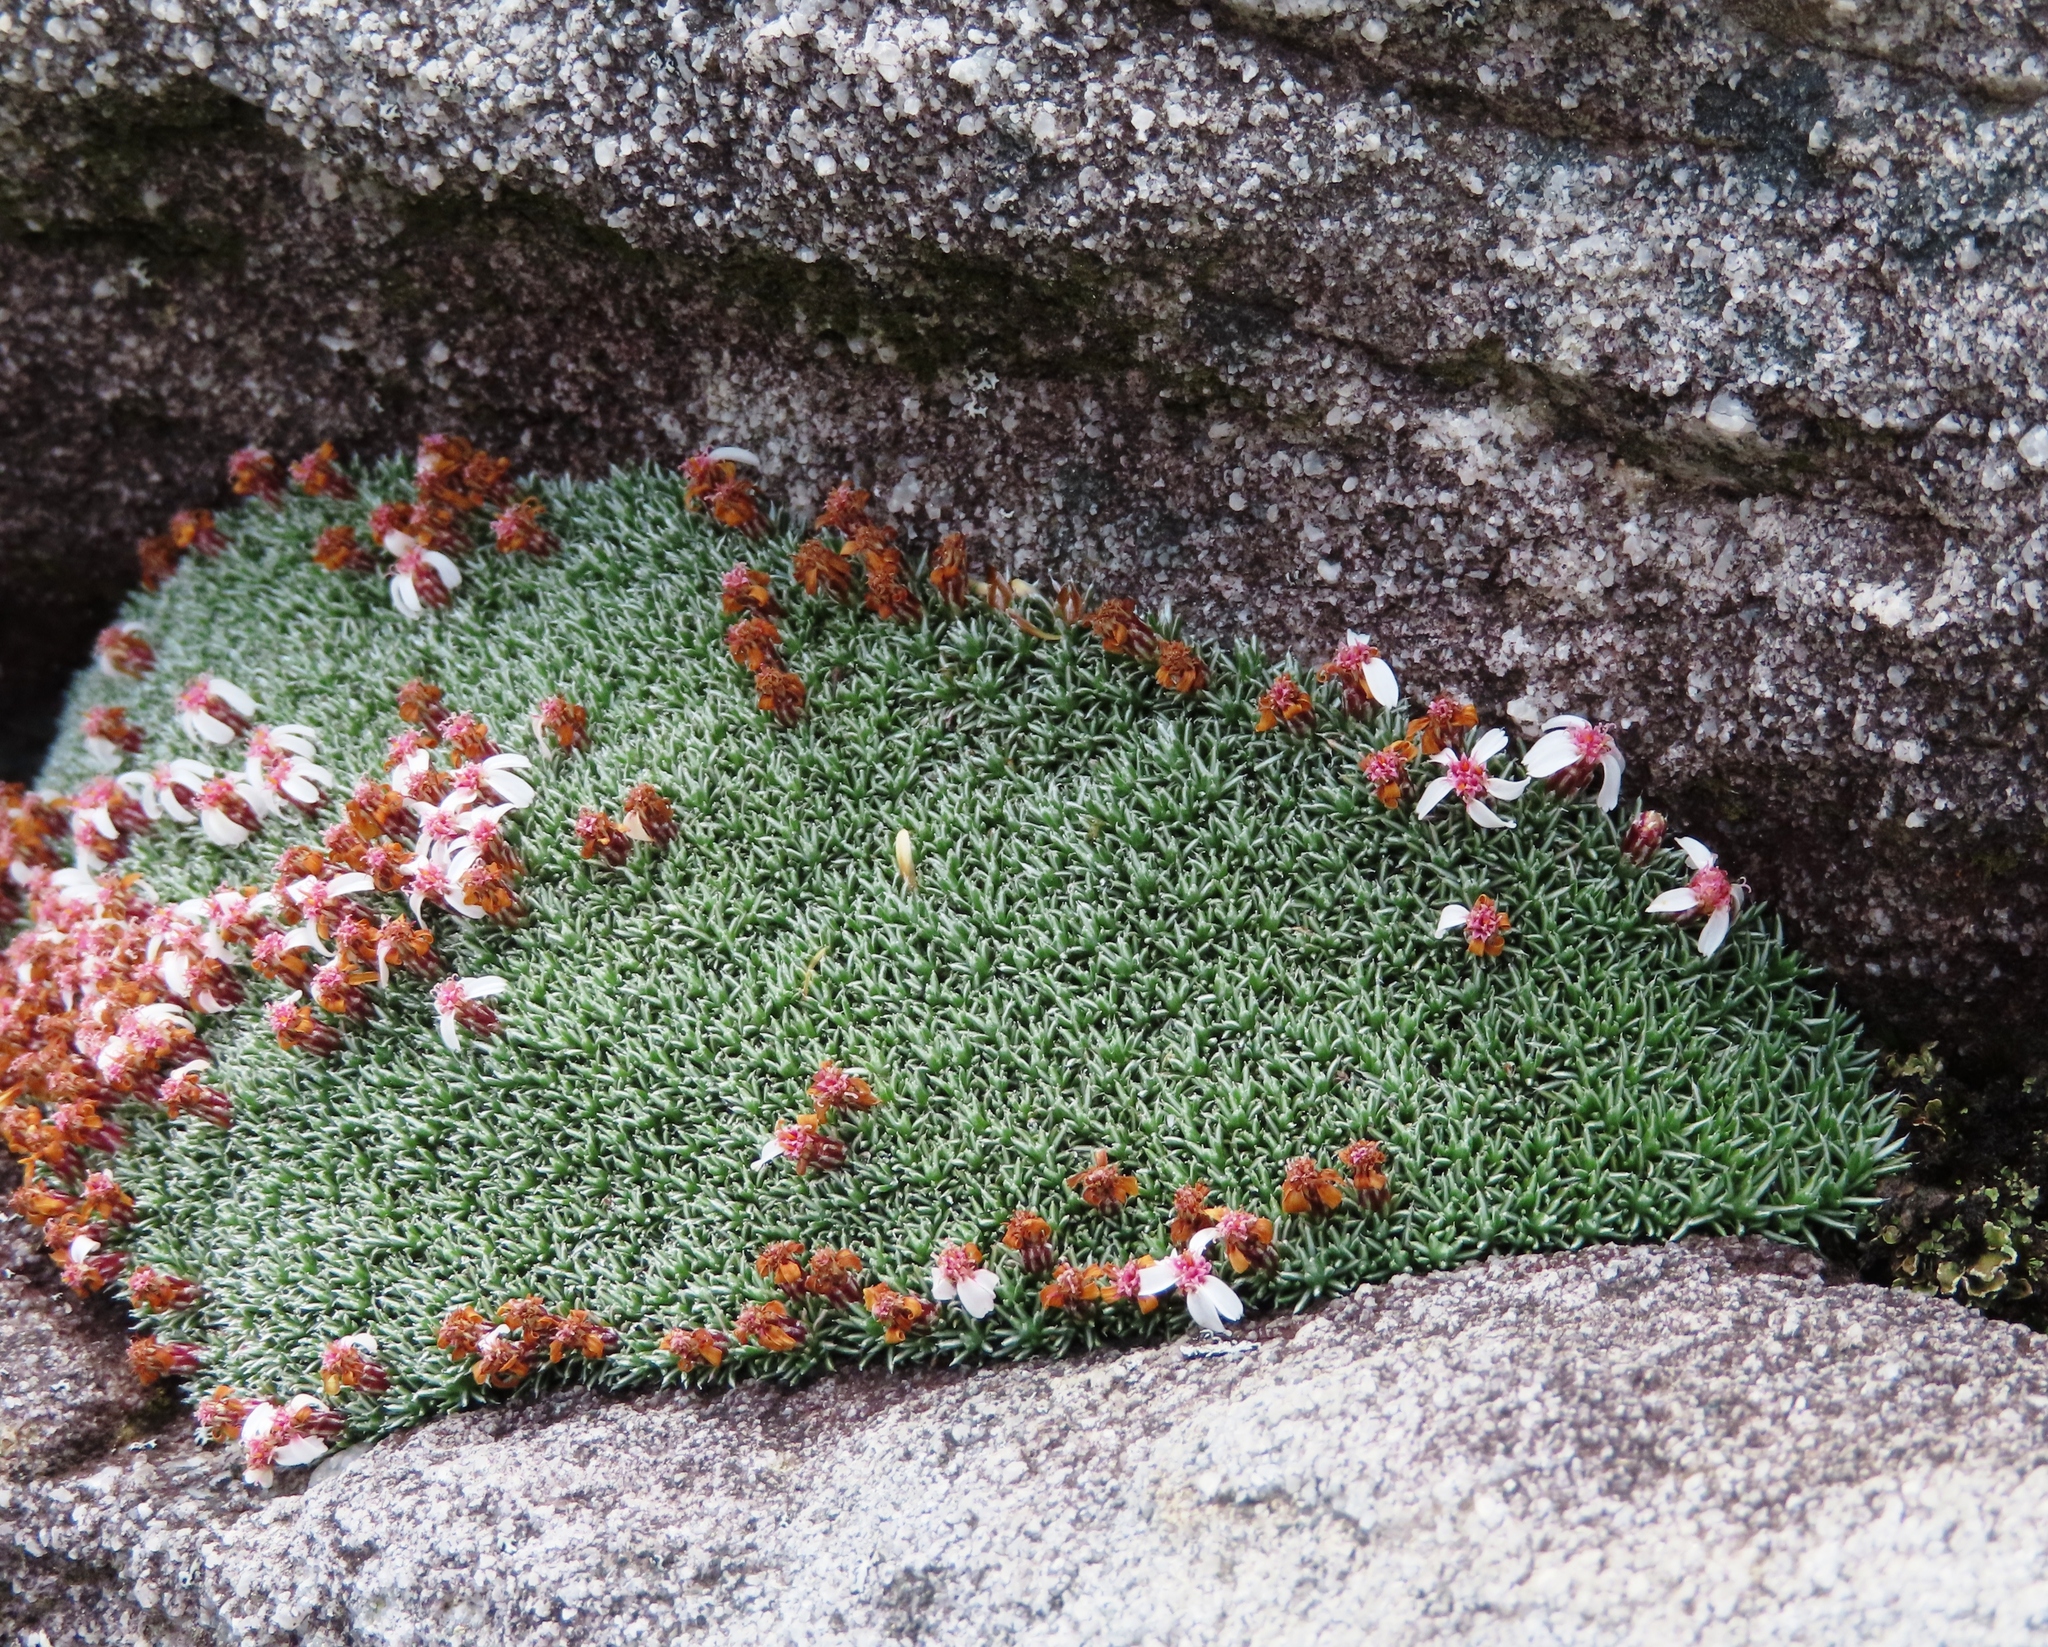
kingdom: Plantae
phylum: Tracheophyta
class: Magnoliopsida
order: Asterales
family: Asteraceae
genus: Muscosomorphe
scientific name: Muscosomorphe aretioides
